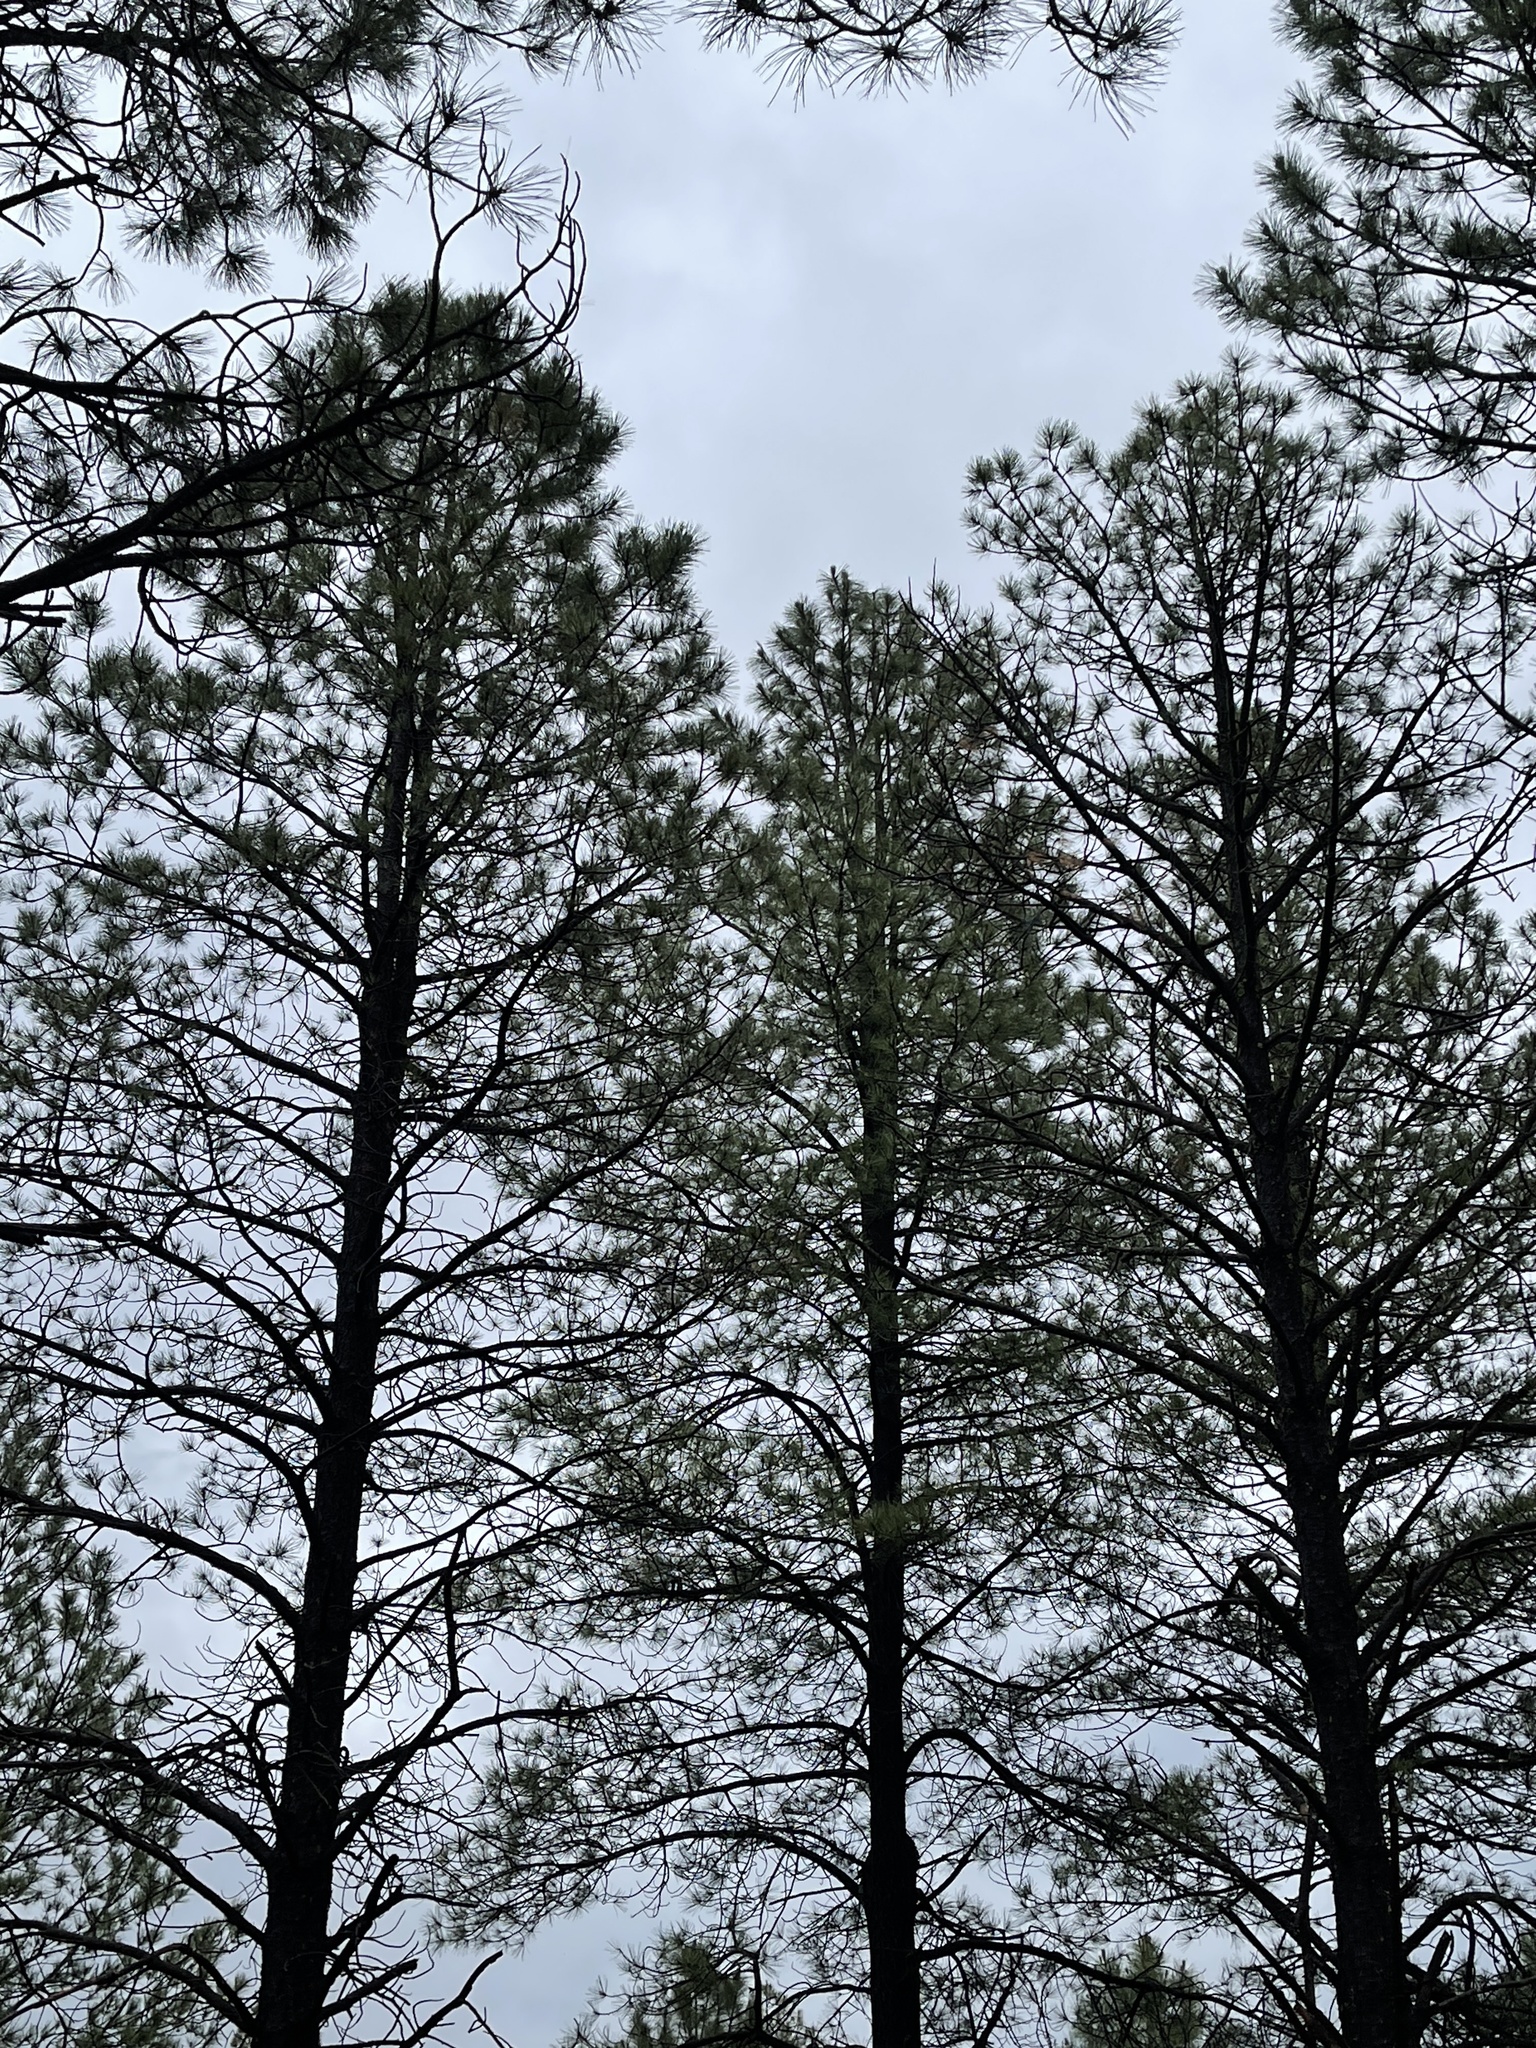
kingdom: Plantae
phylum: Tracheophyta
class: Pinopsida
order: Pinales
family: Pinaceae
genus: Pinus
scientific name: Pinus ponderosa
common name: Western yellow-pine
